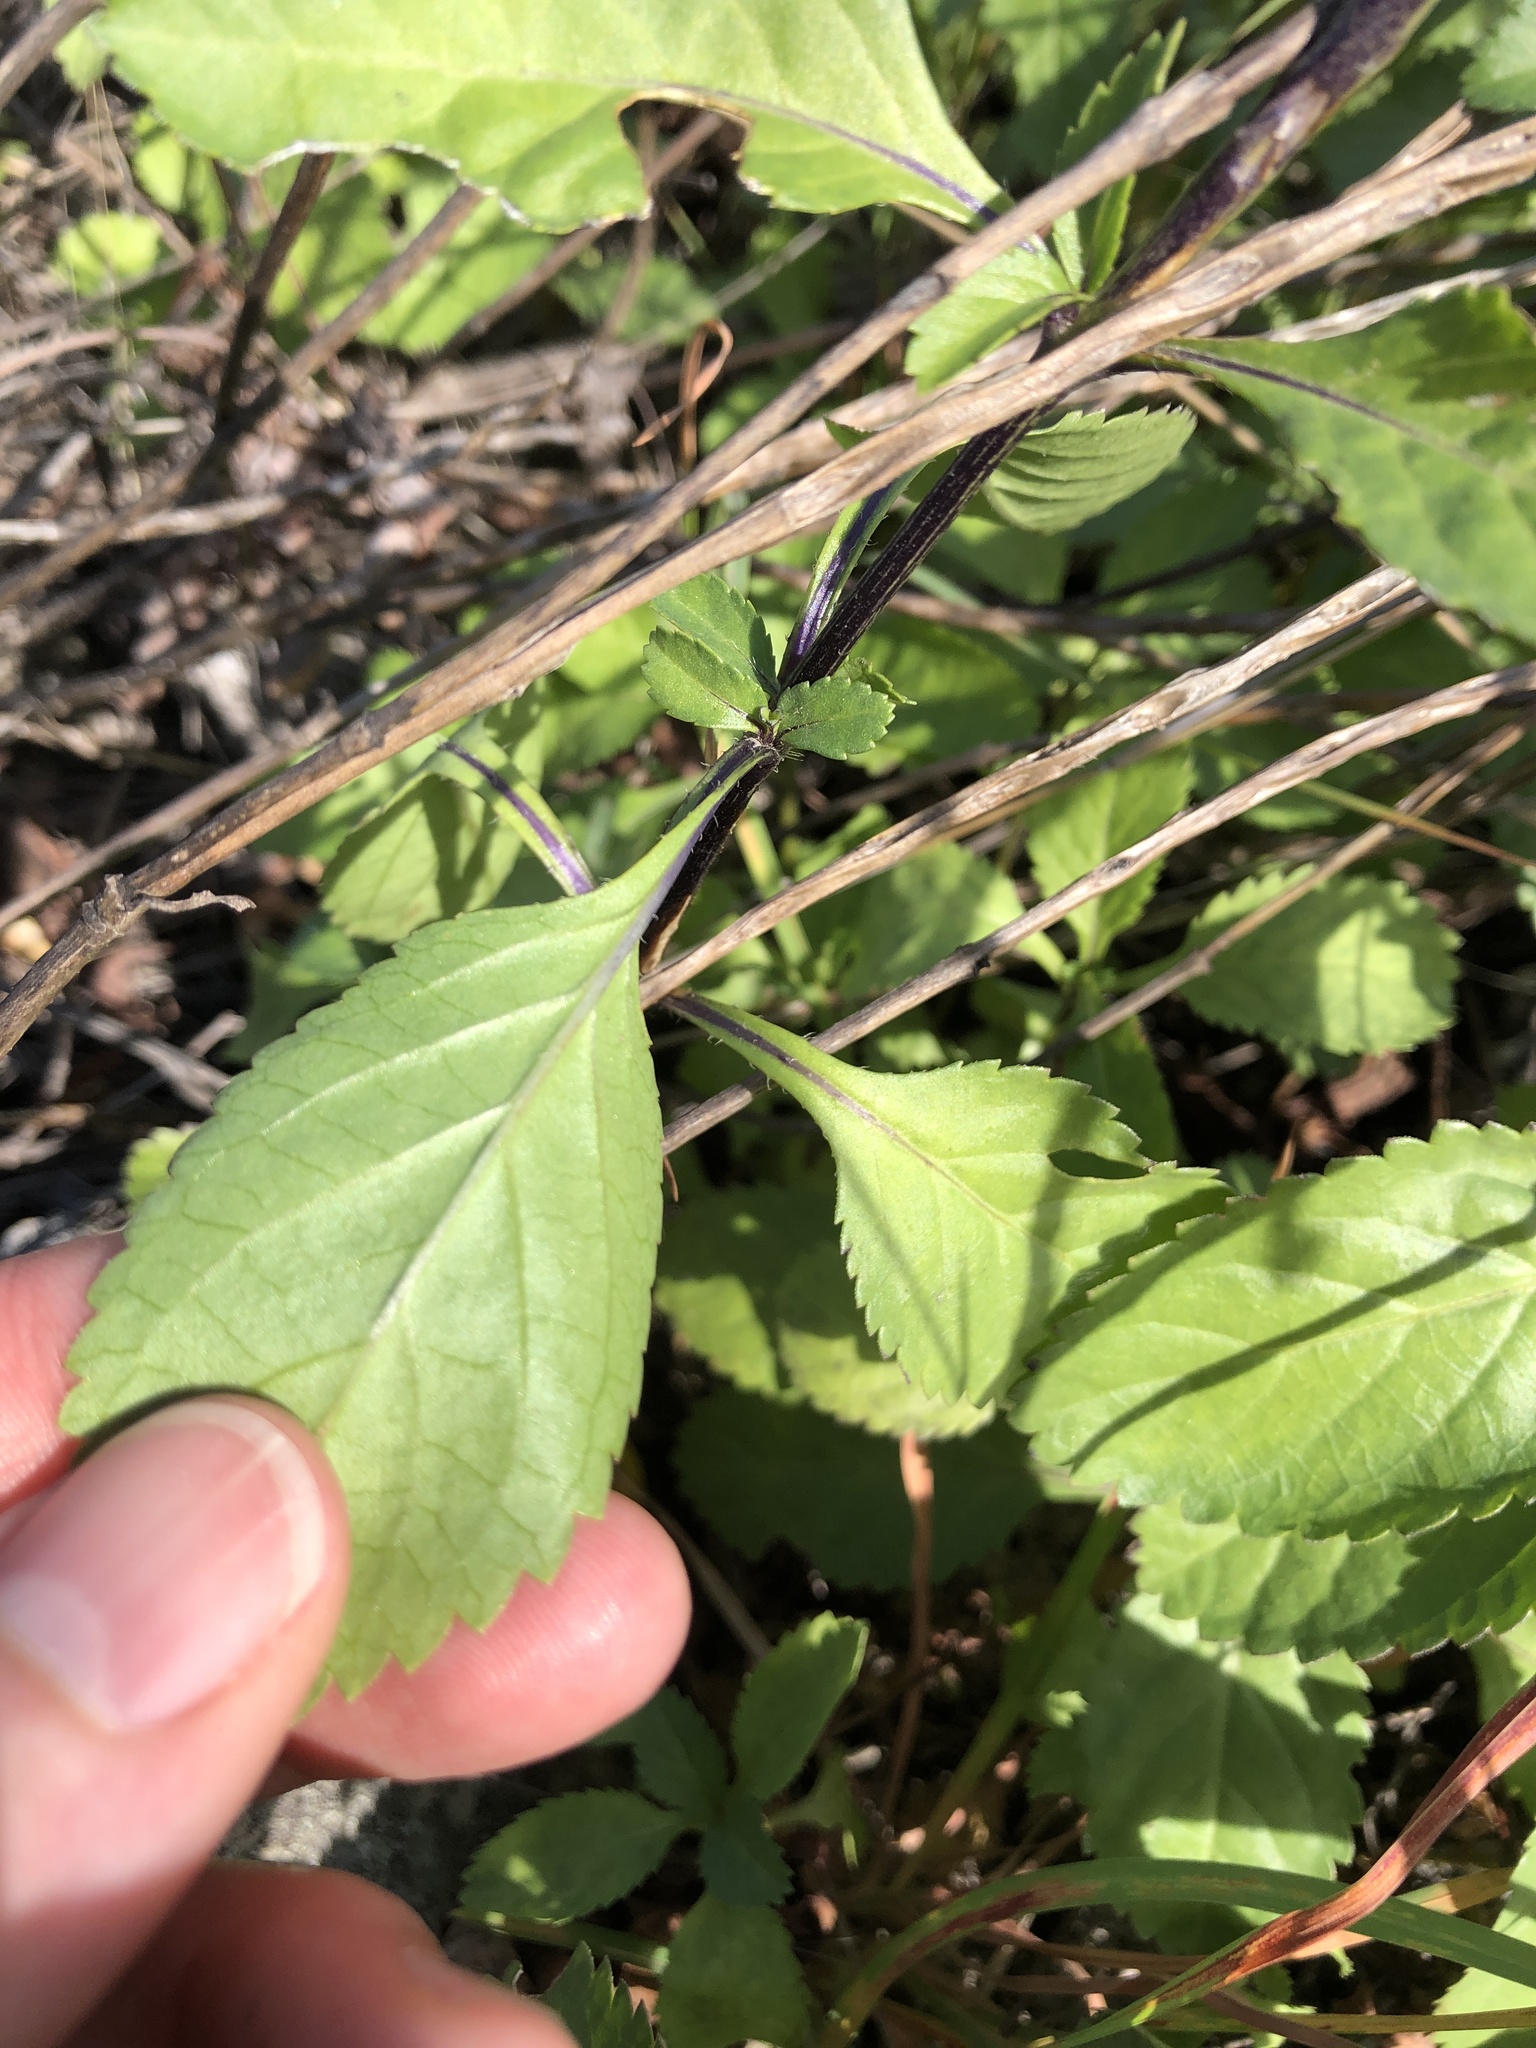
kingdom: Plantae
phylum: Tracheophyta
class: Magnoliopsida
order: Lamiales
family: Verbenaceae
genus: Stachytarpheta
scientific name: Stachytarpheta jamaicensis
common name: Light-blue snakeweed
